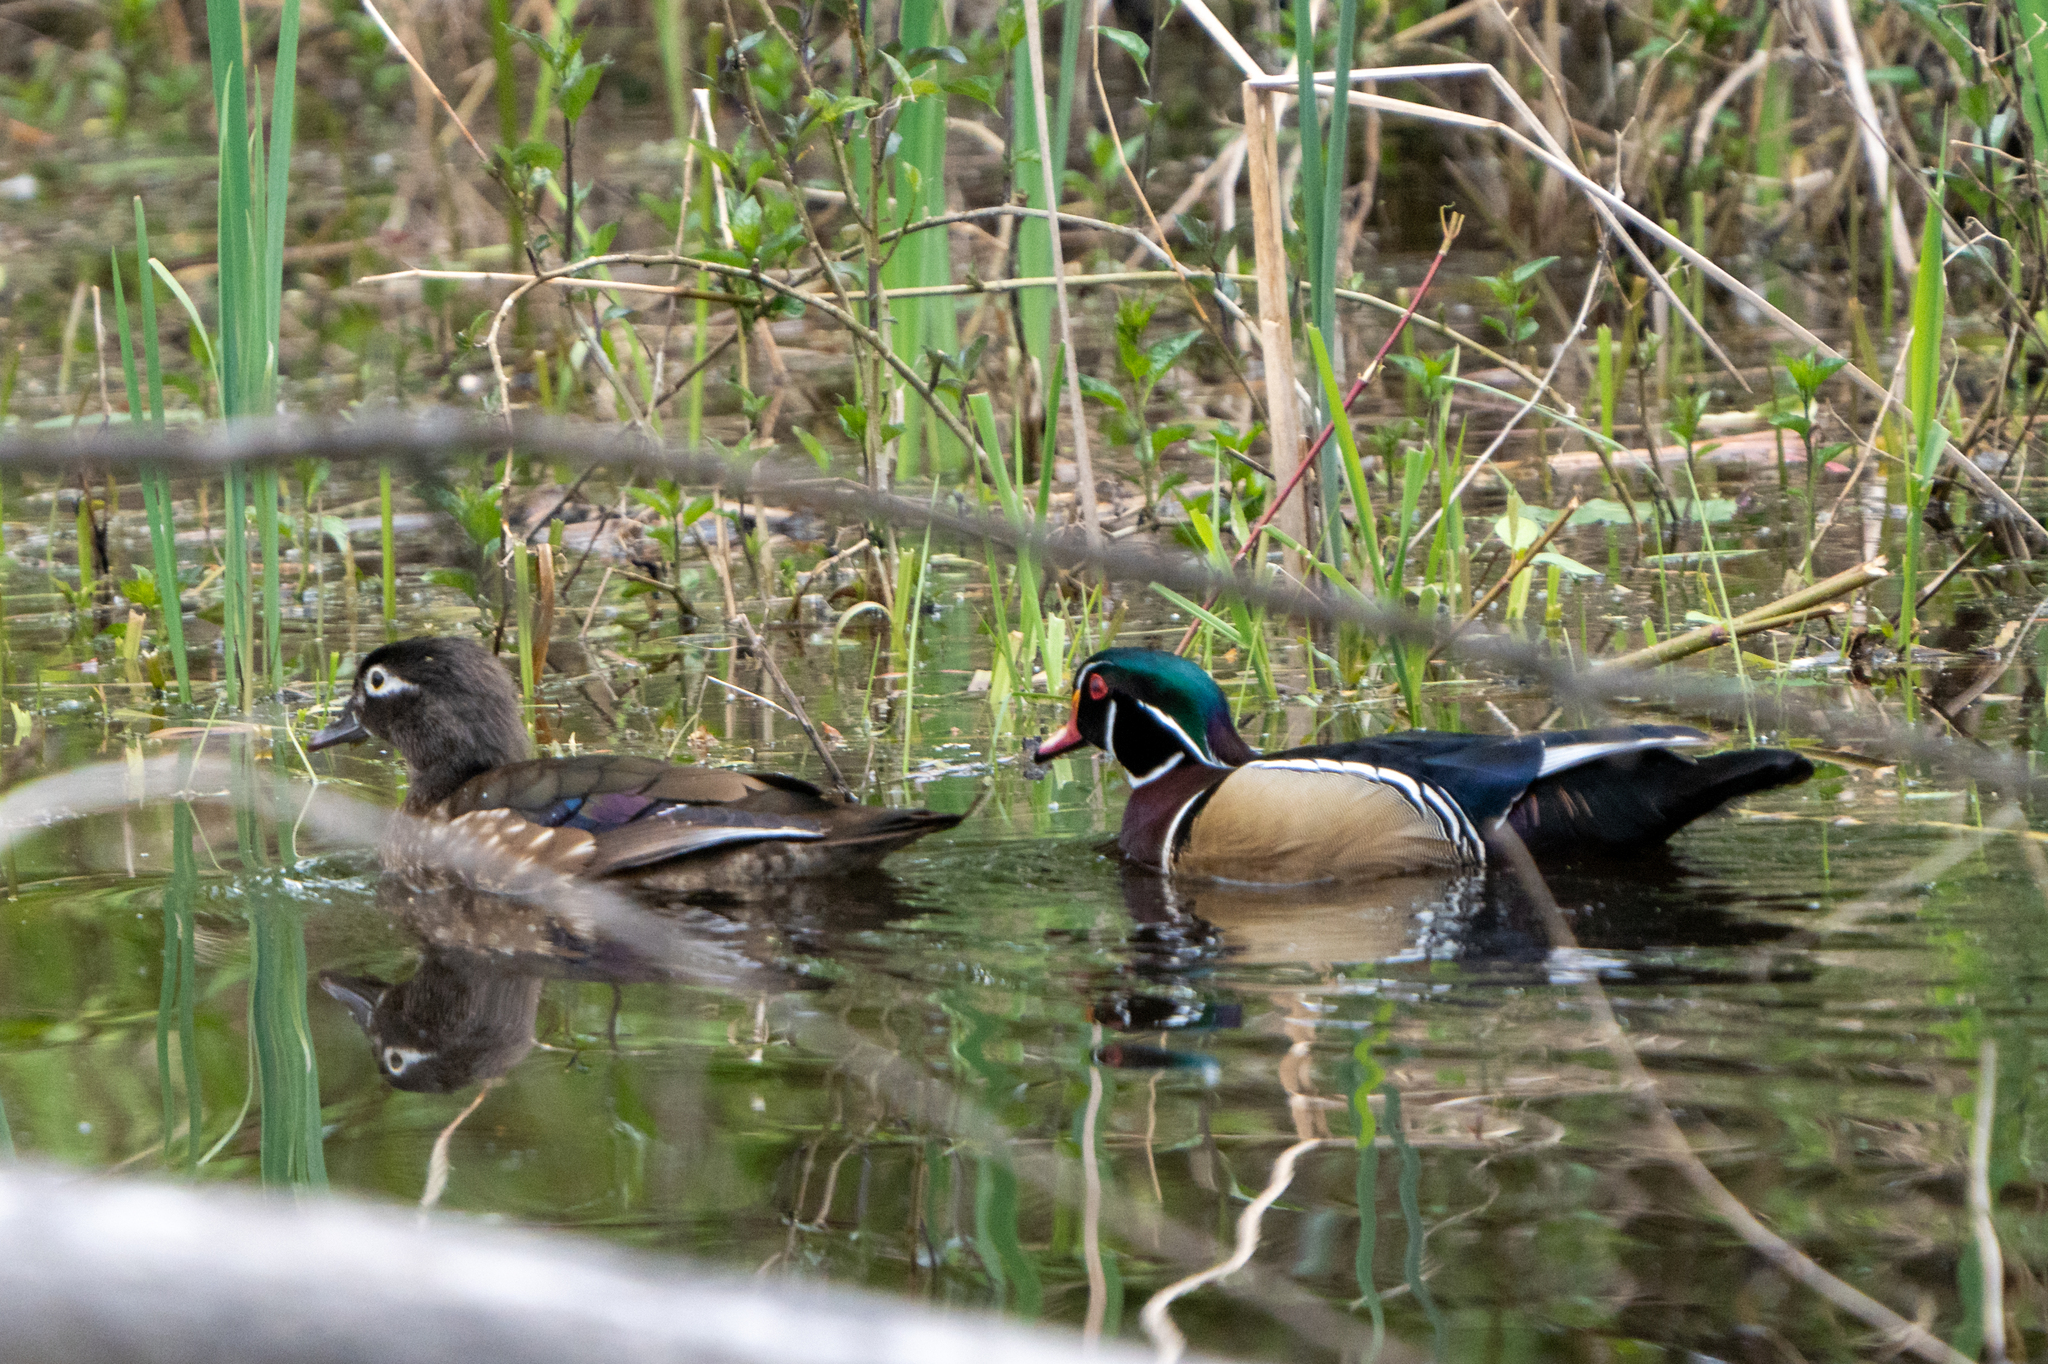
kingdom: Animalia
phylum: Chordata
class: Aves
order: Anseriformes
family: Anatidae
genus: Aix
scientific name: Aix sponsa
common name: Wood duck
